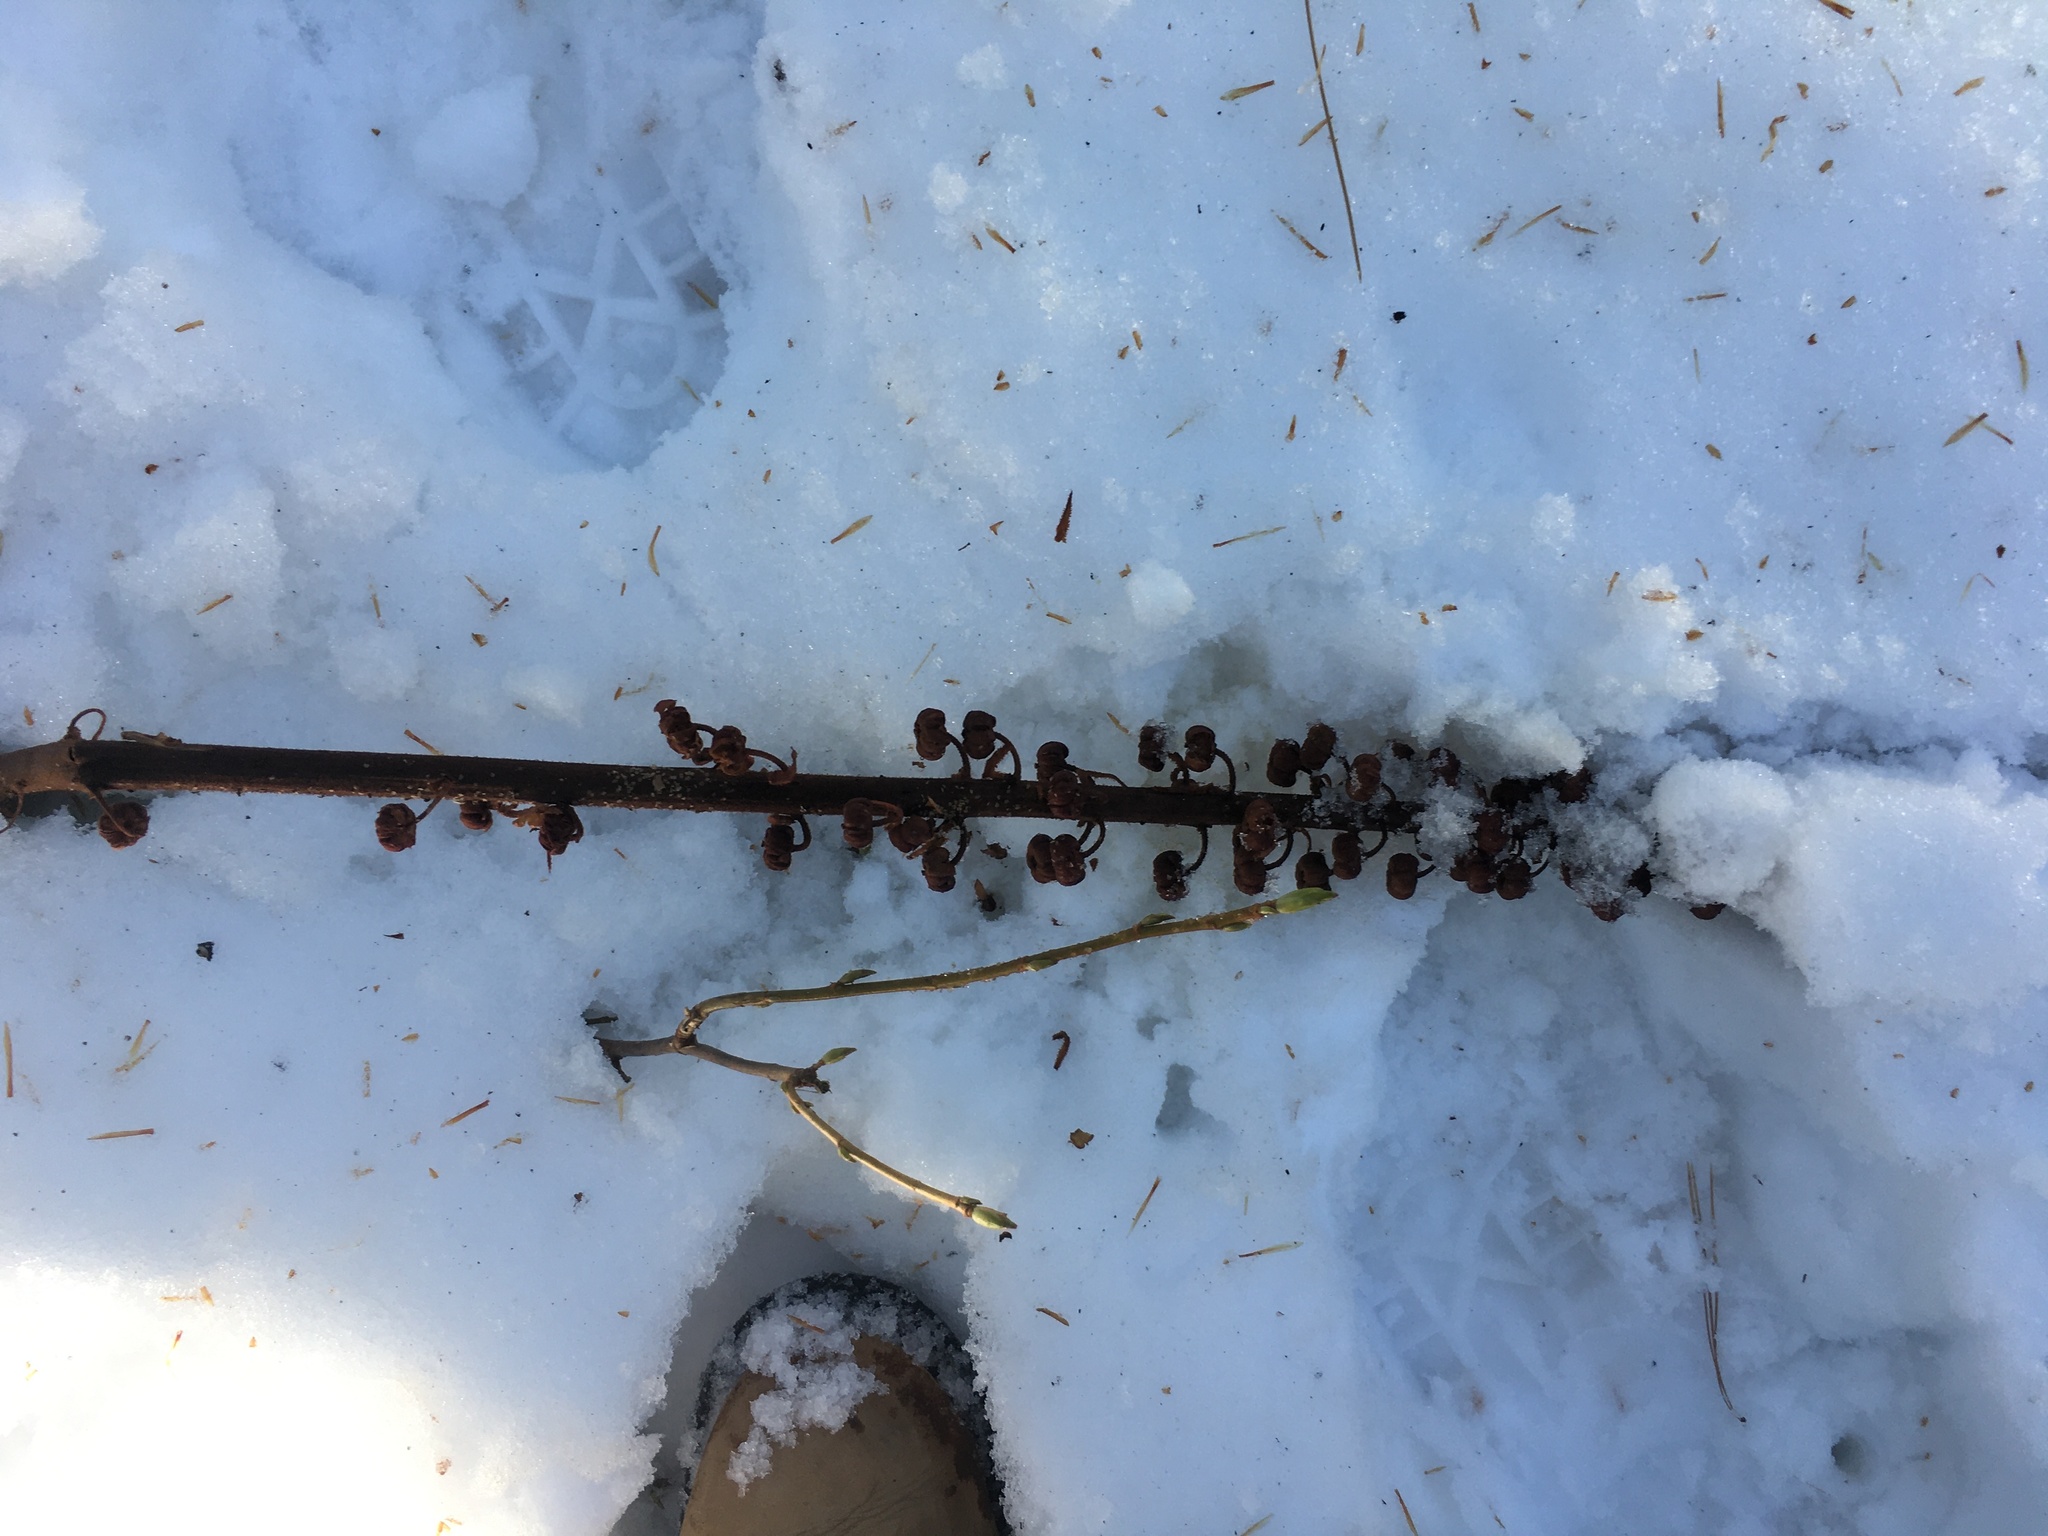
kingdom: Plantae
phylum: Tracheophyta
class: Magnoliopsida
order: Ericales
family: Ericaceae
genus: Pterospora
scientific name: Pterospora andromedea
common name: Giant bird's-nest
